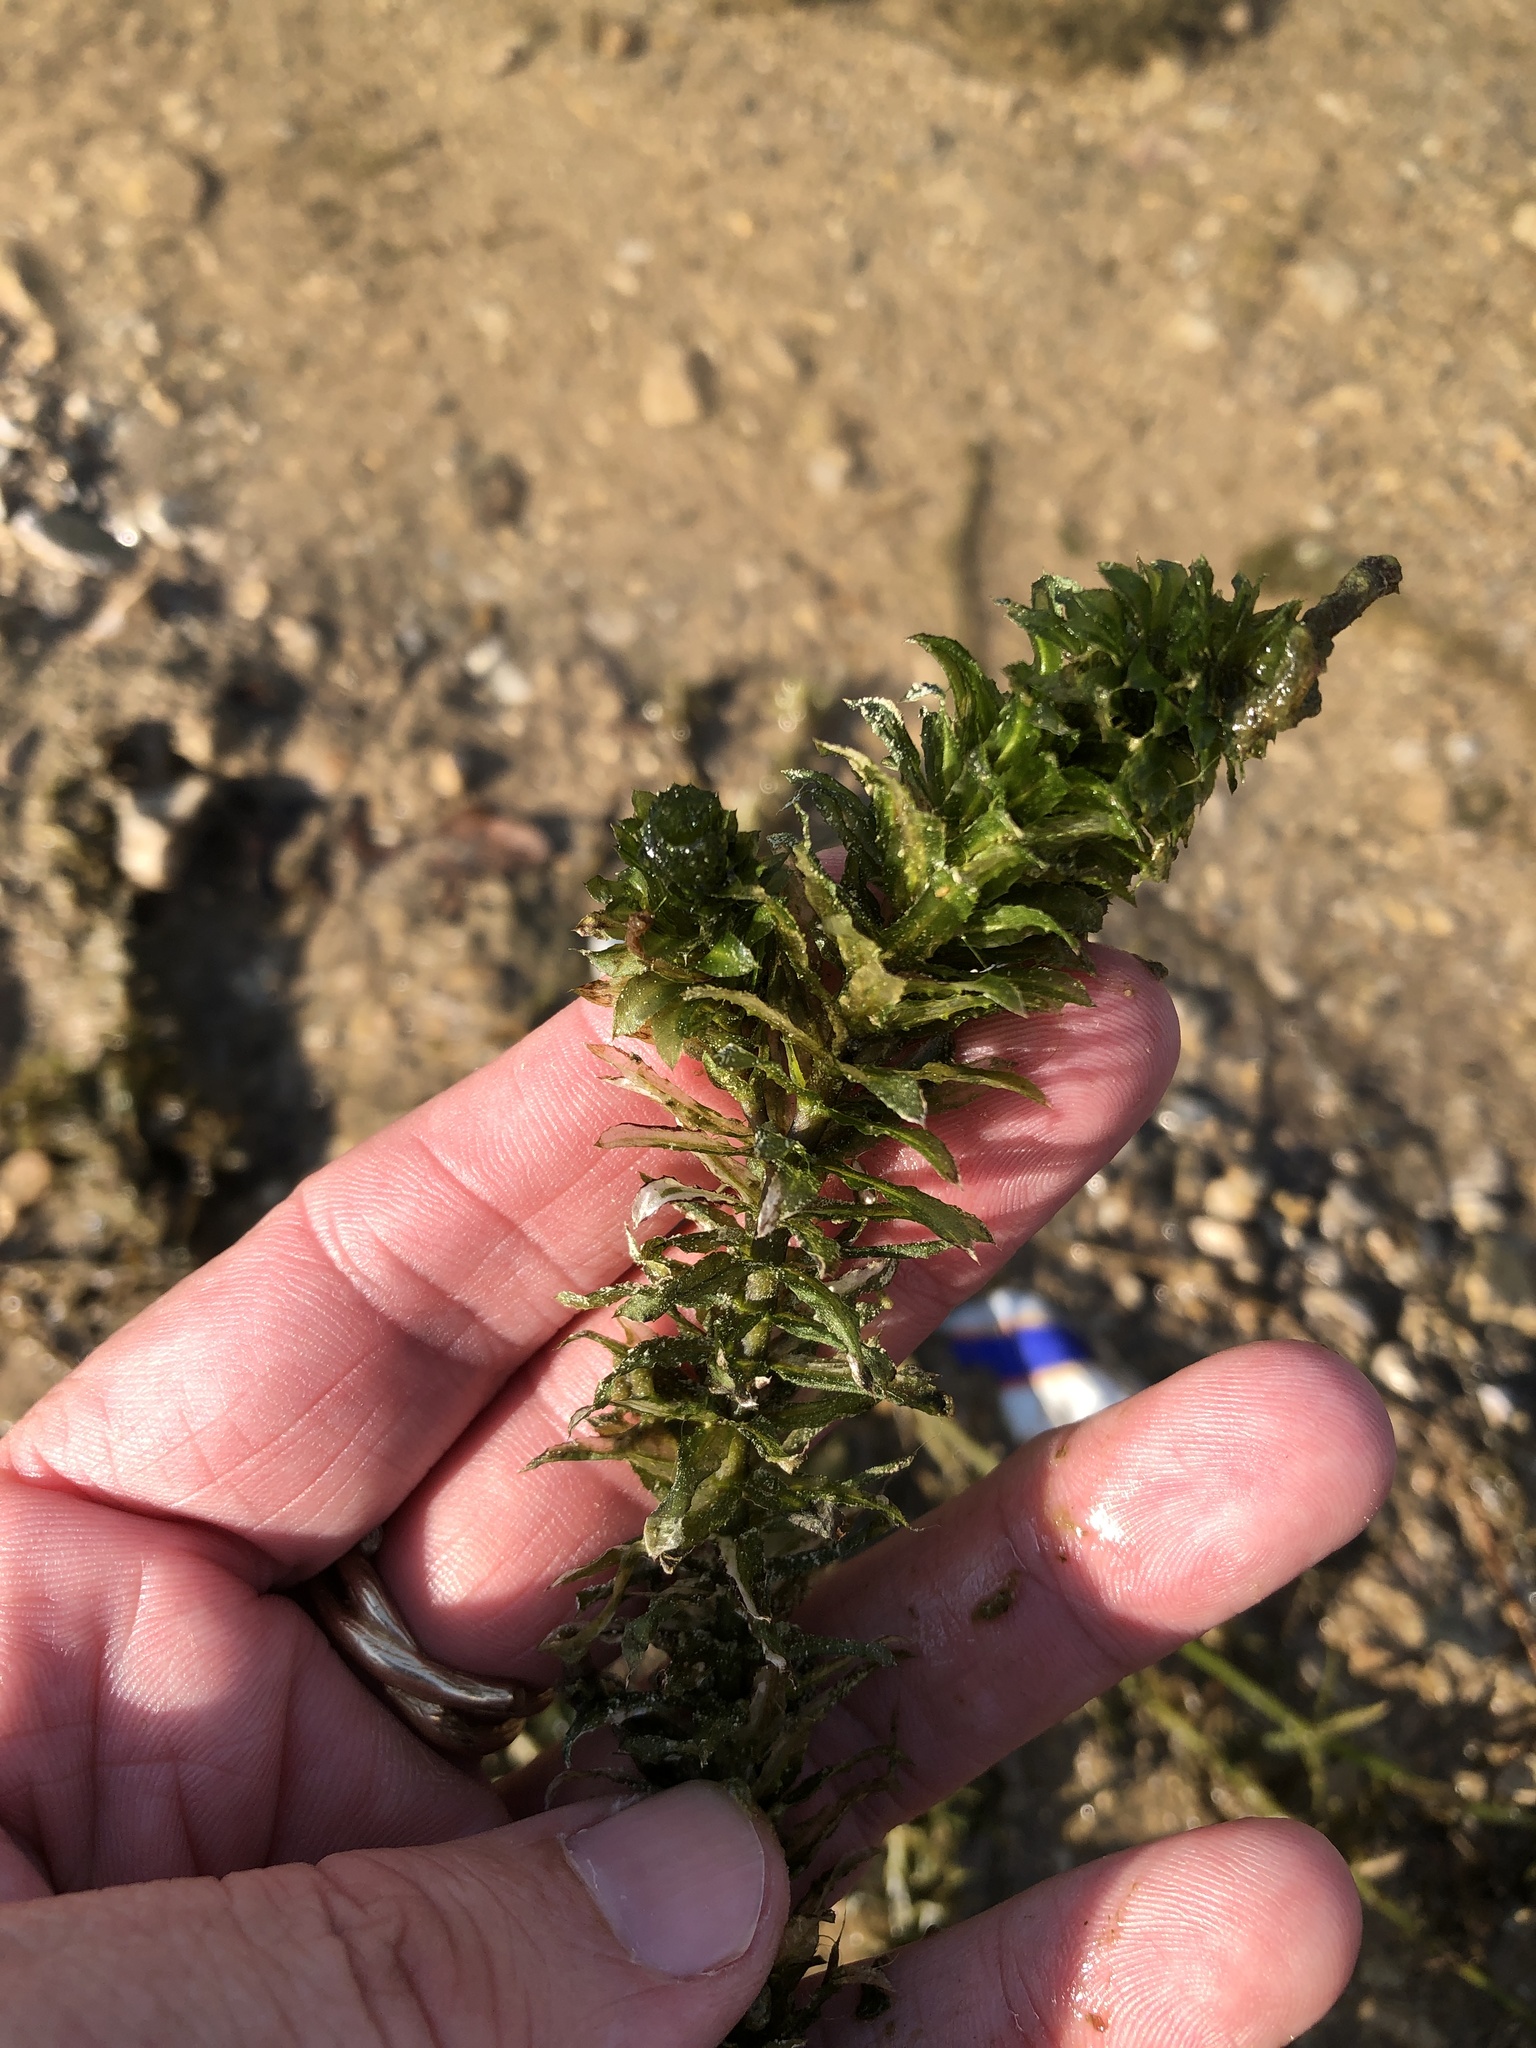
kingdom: Plantae
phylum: Tracheophyta
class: Liliopsida
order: Alismatales
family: Hydrocharitaceae
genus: Hydrilla
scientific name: Hydrilla verticillata
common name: Florida-elodea
